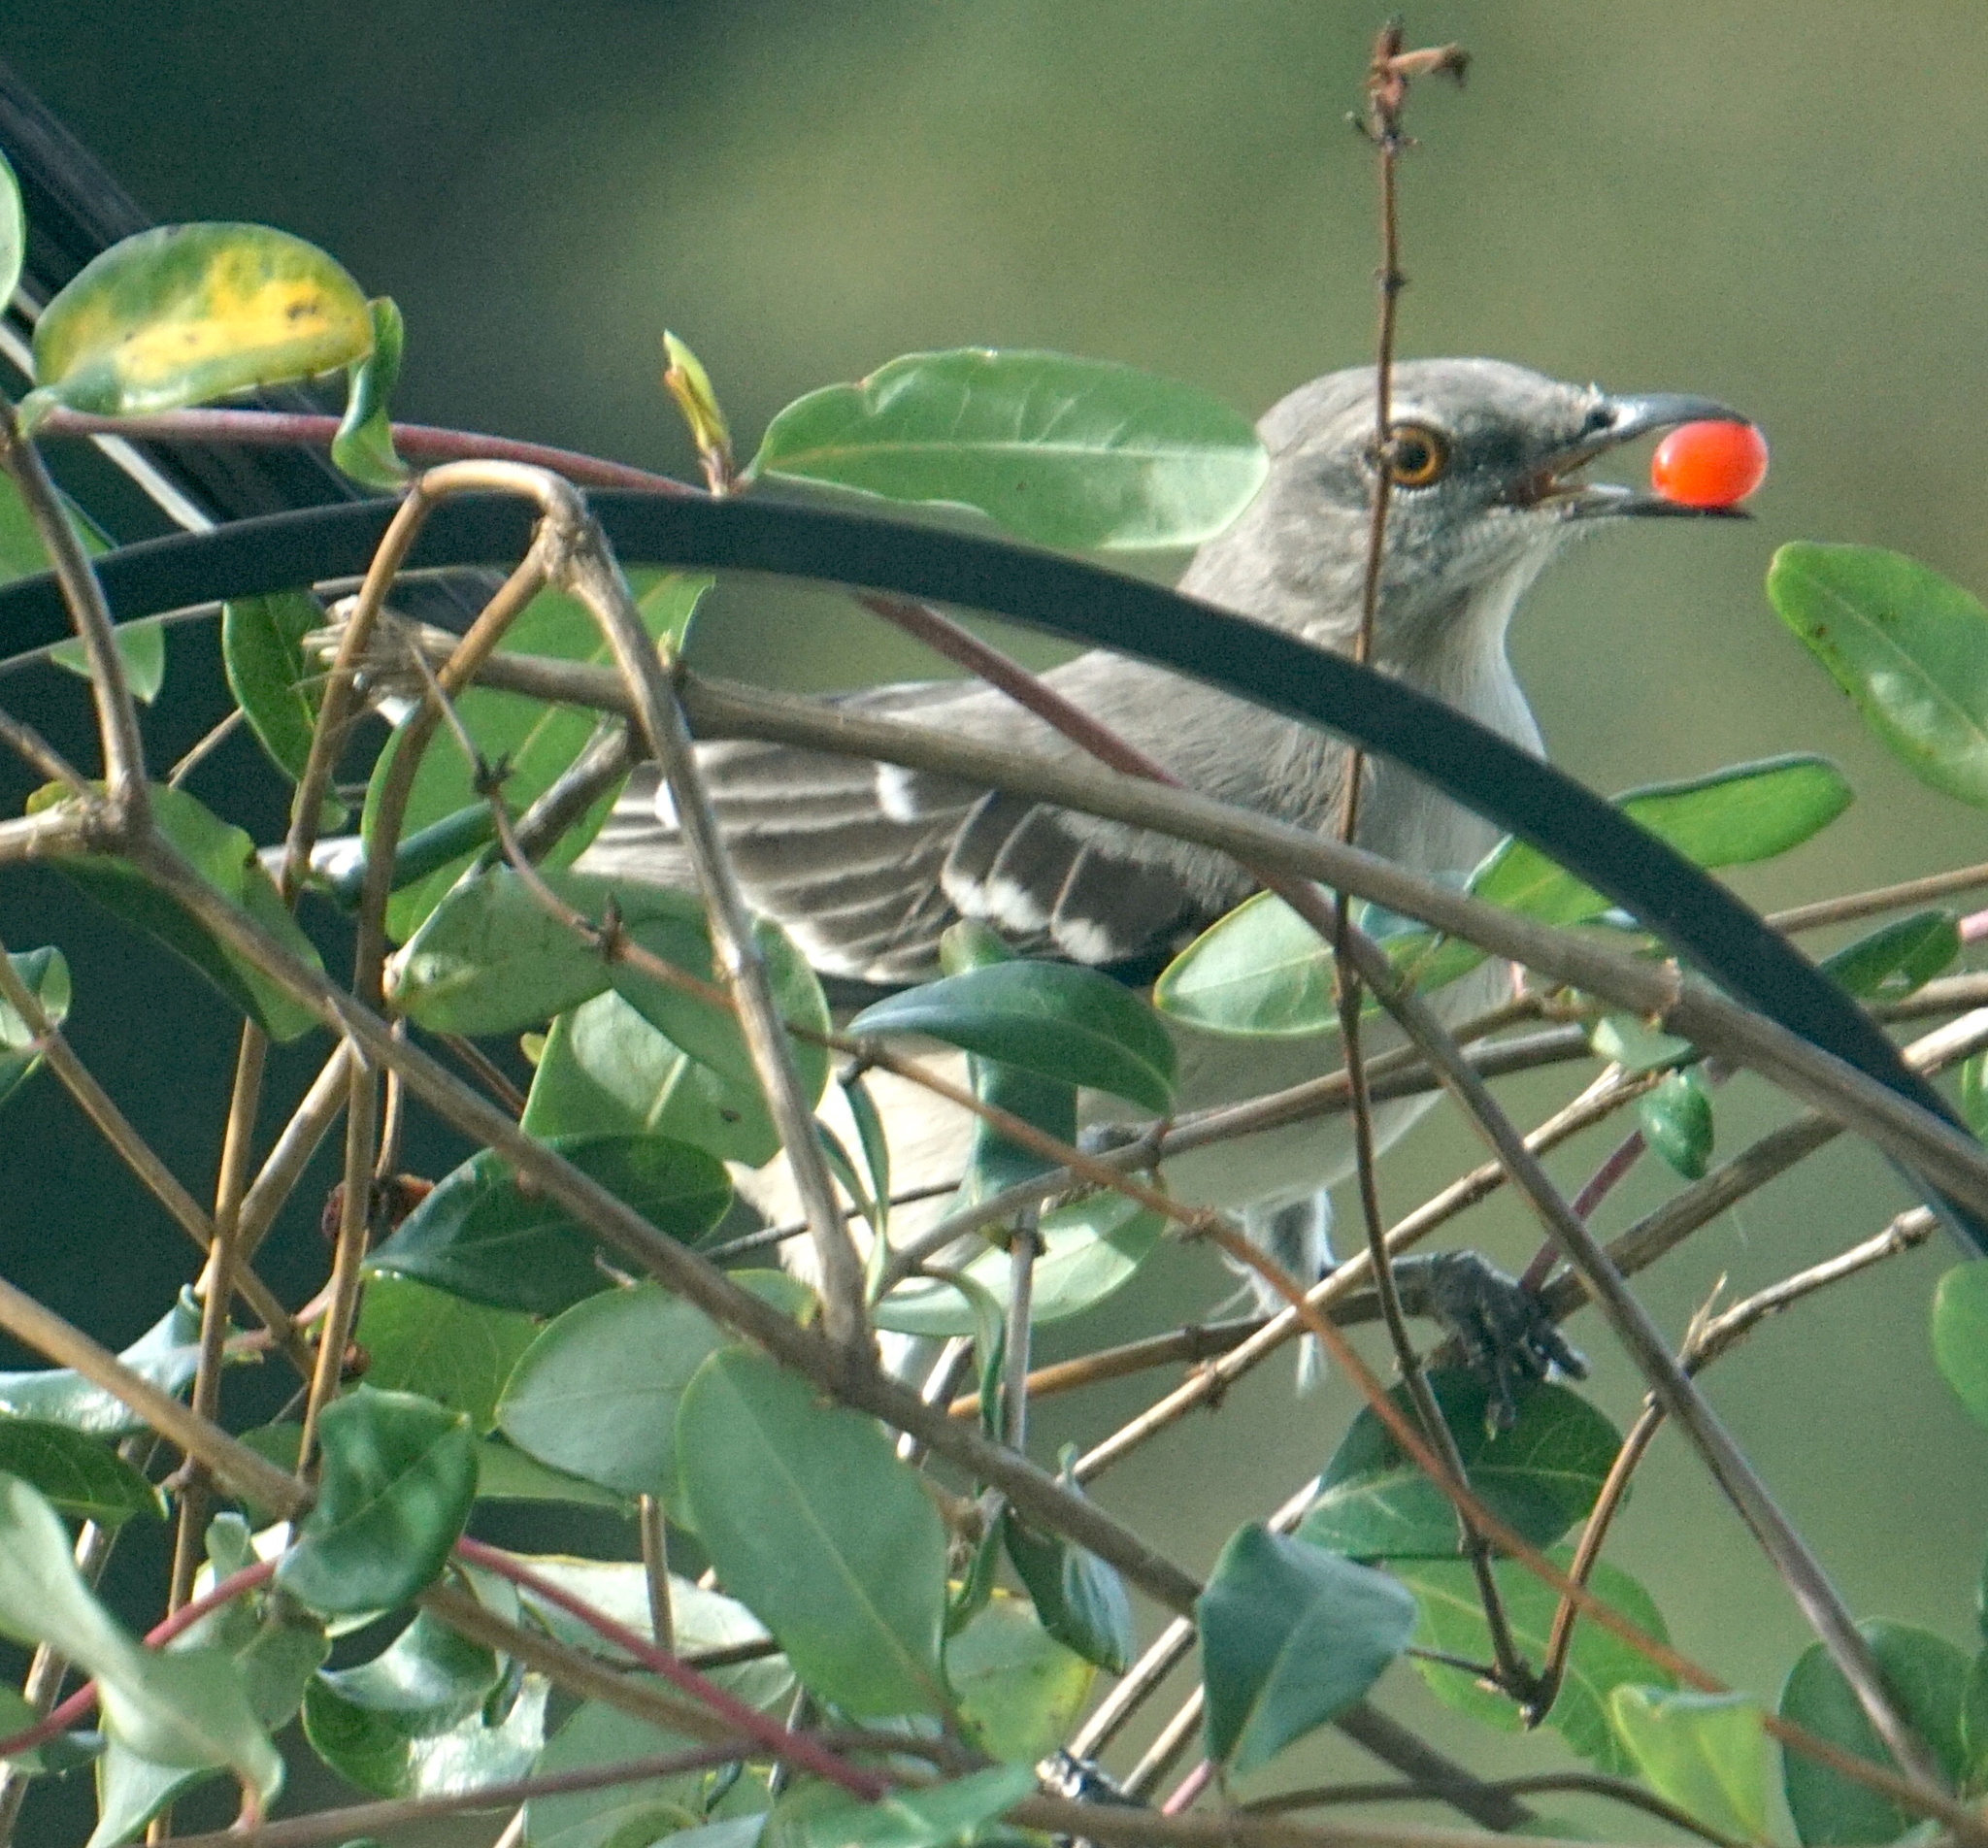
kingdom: Animalia
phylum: Chordata
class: Aves
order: Passeriformes
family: Mimidae
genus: Mimus
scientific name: Mimus polyglottos
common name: Northern mockingbird
